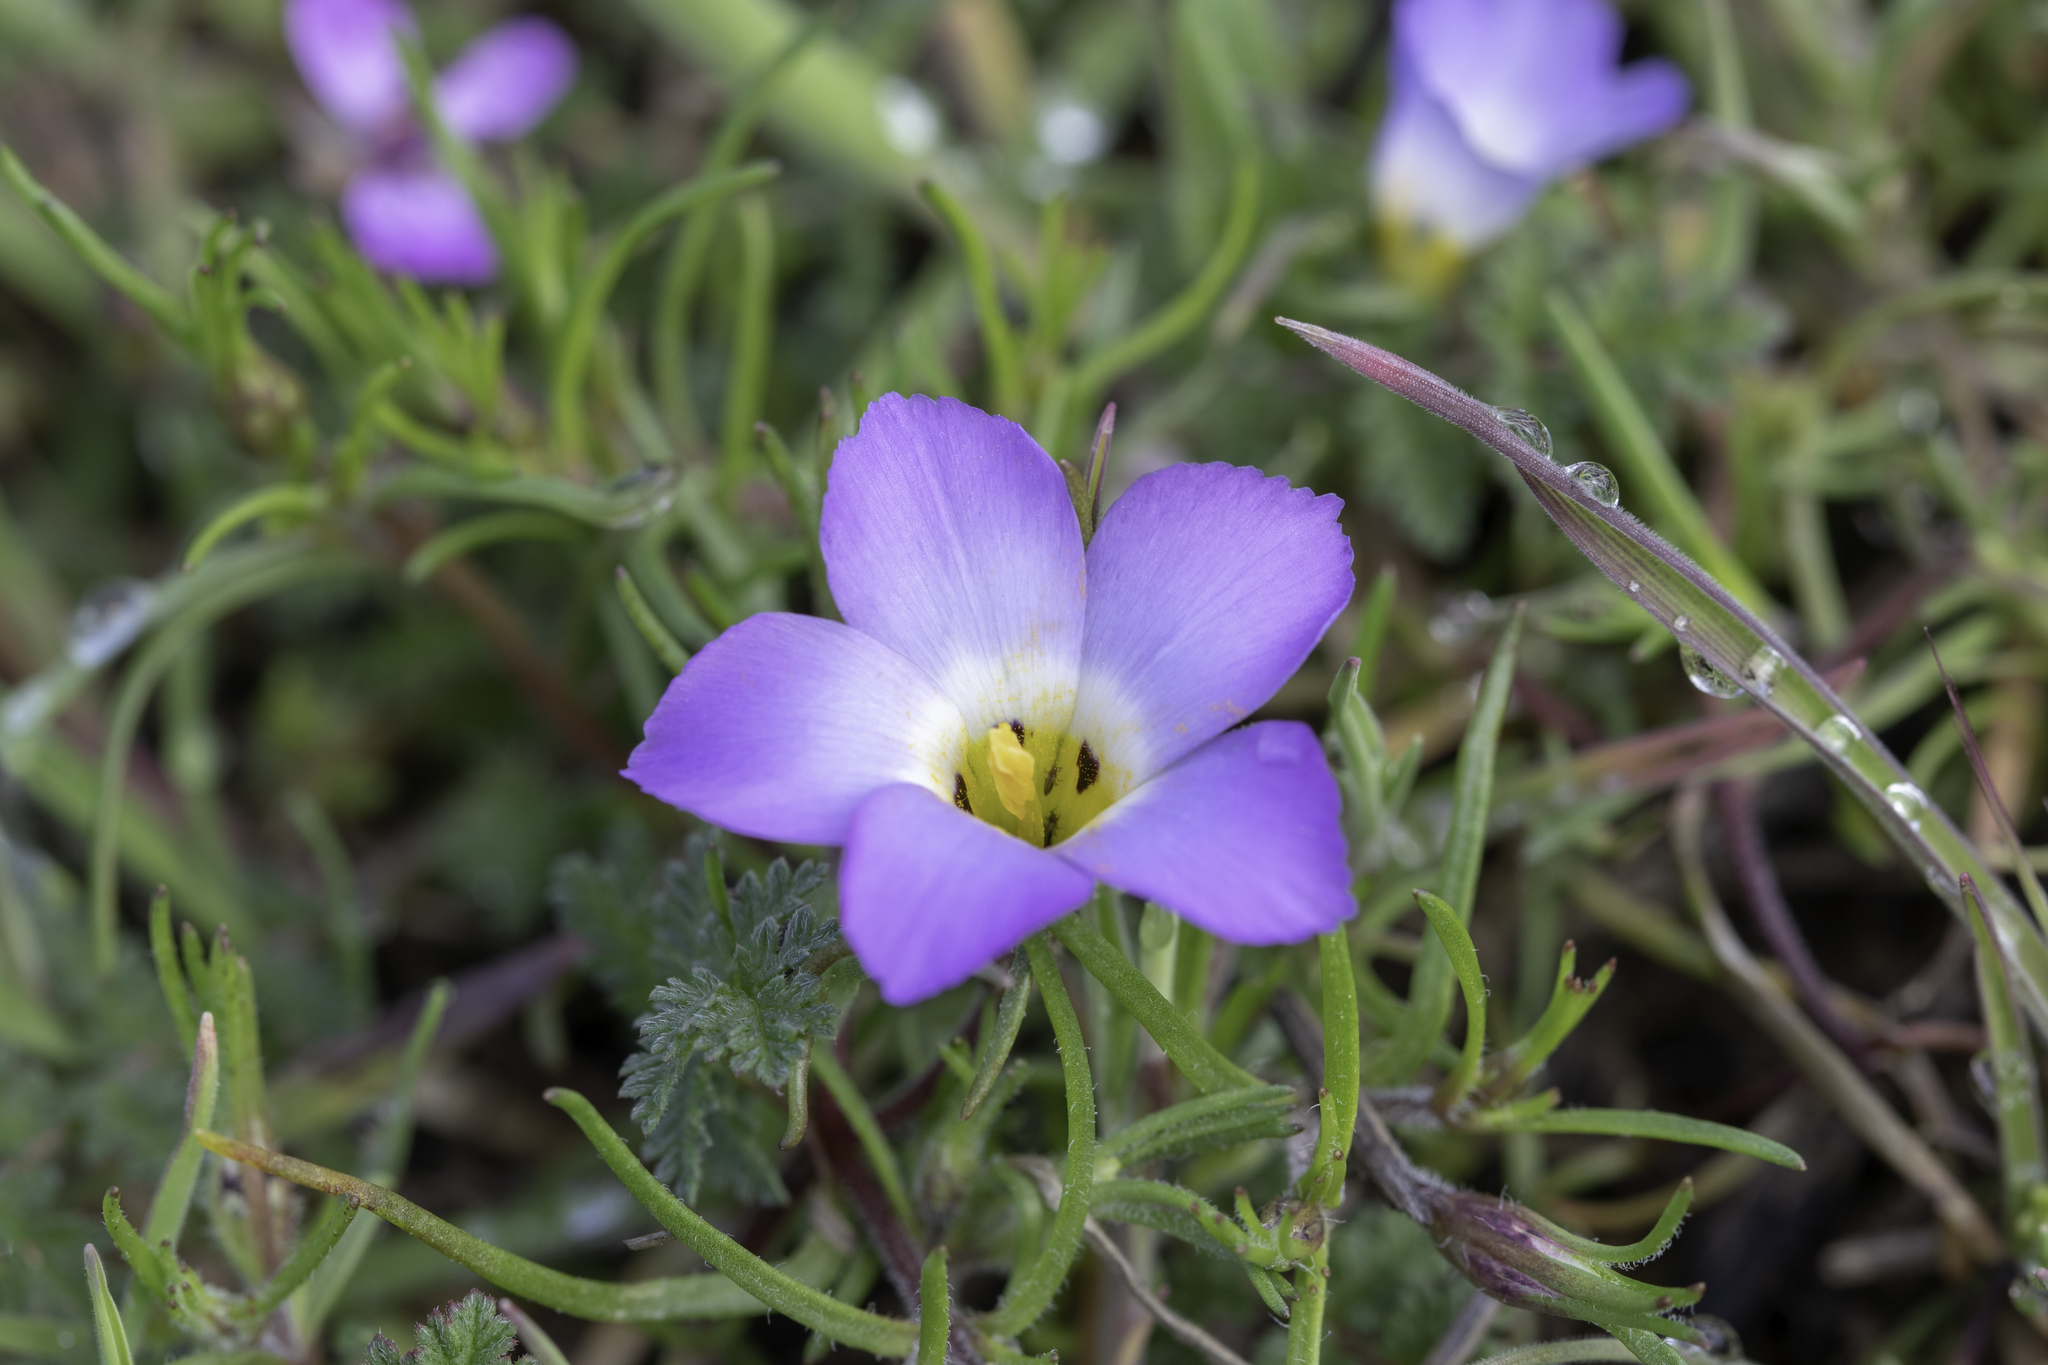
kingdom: Plantae
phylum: Tracheophyta
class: Magnoliopsida
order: Ericales
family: Polemoniaceae
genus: Linanthus
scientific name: Linanthus dianthiflorus
